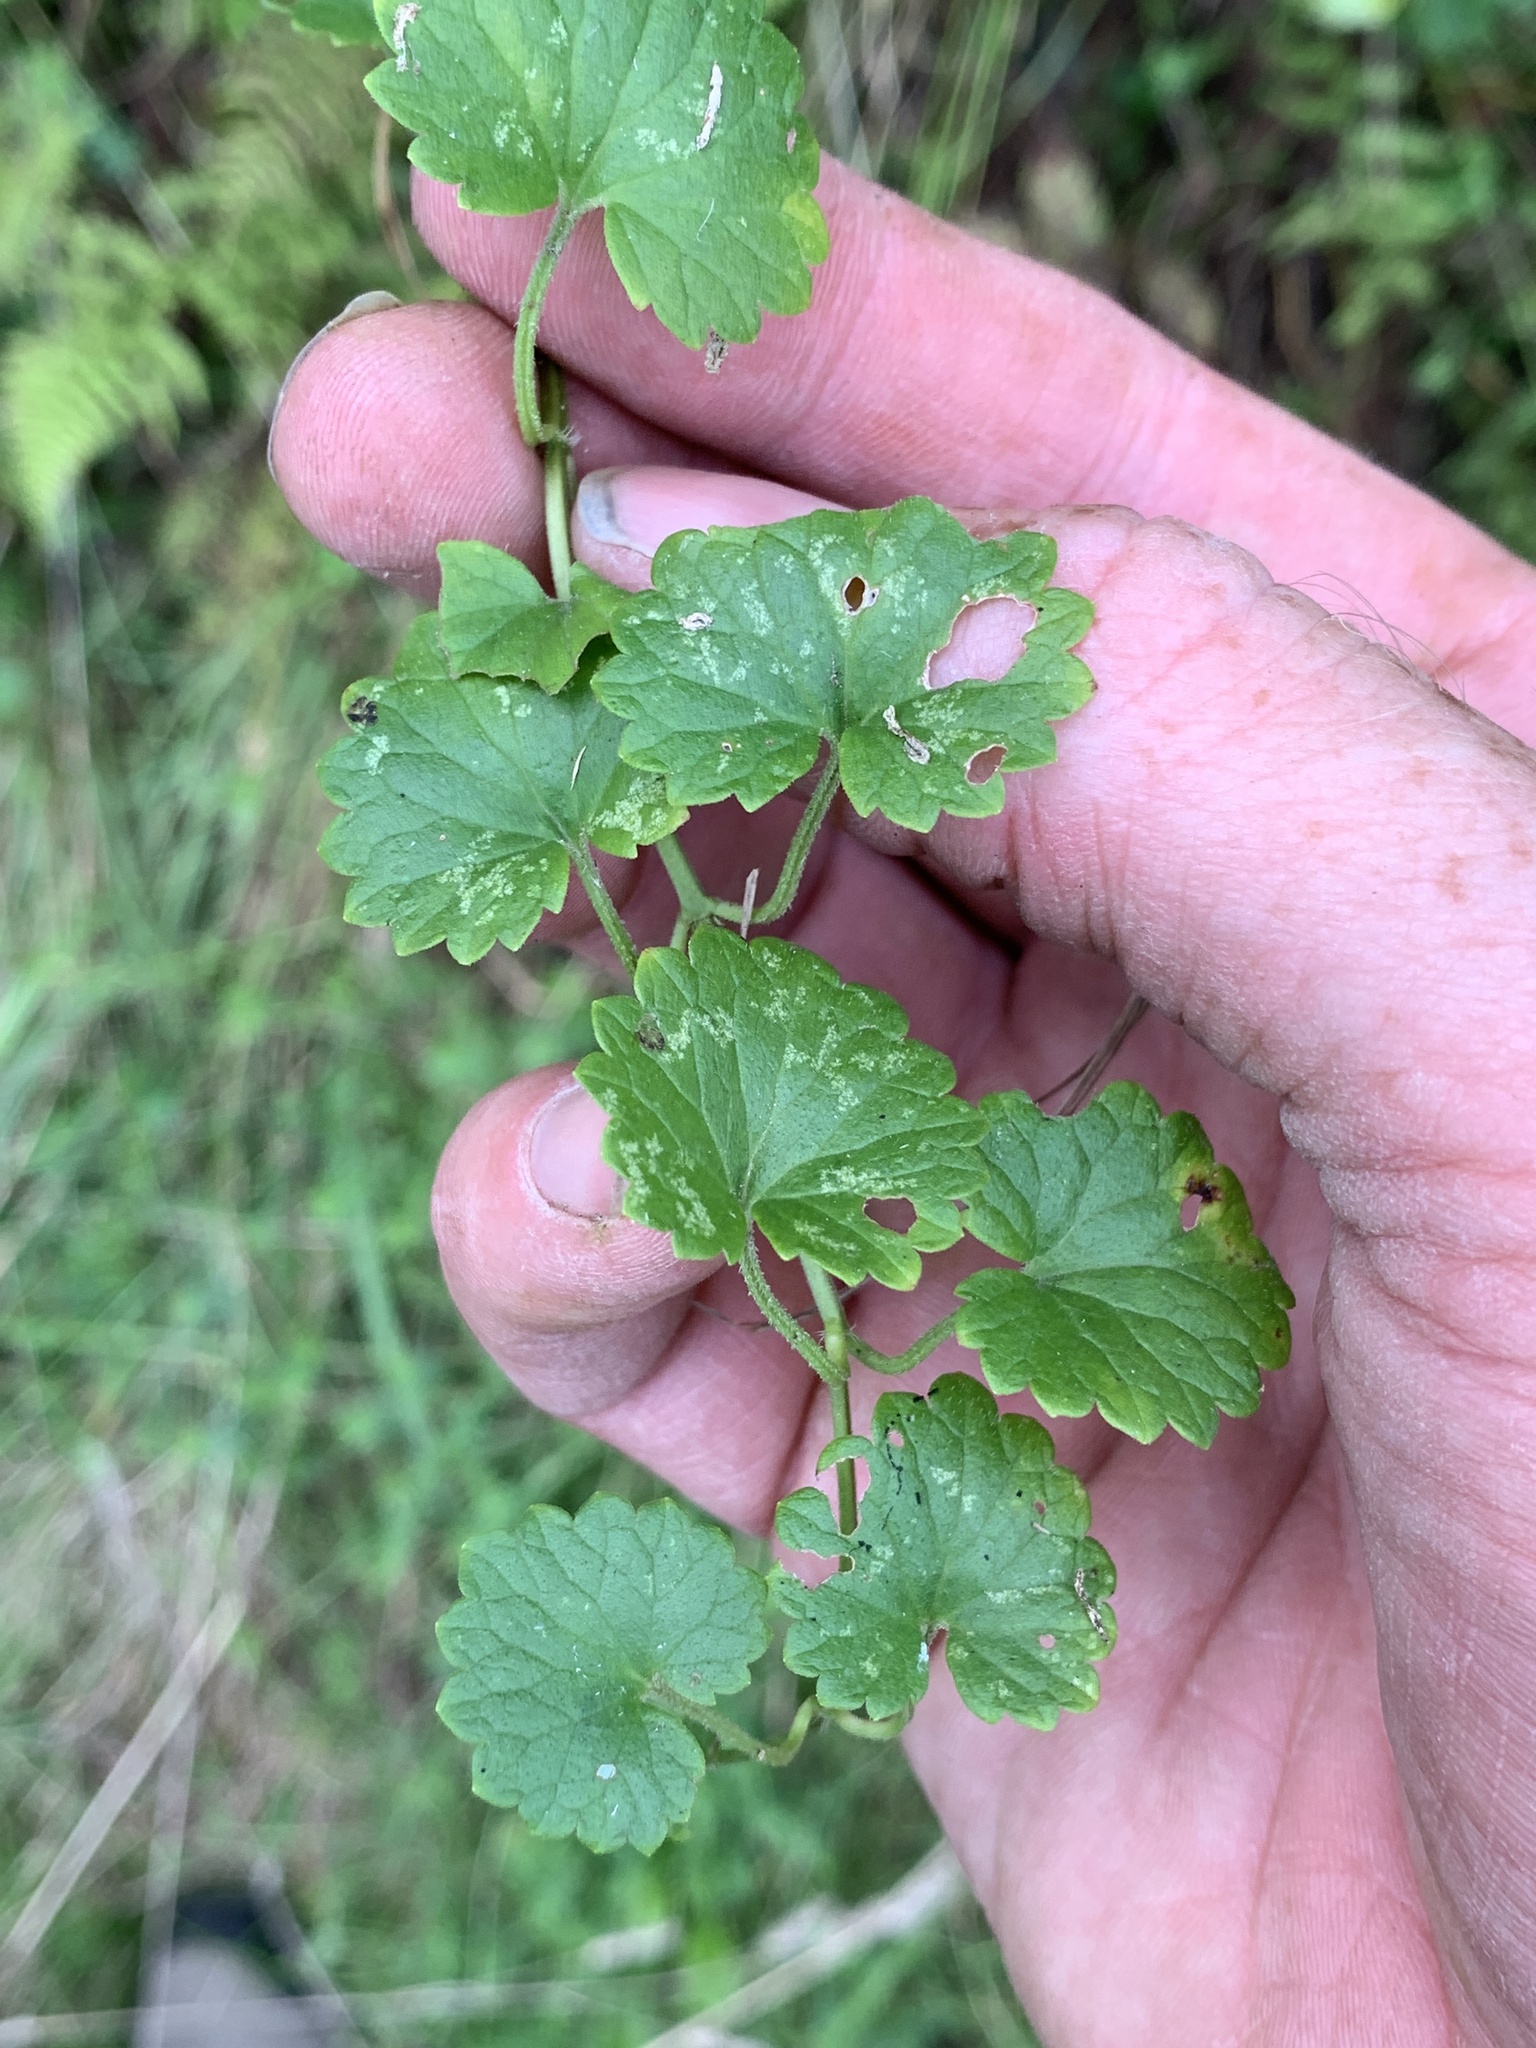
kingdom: Plantae
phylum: Tracheophyta
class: Magnoliopsida
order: Lamiales
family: Lamiaceae
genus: Glechoma
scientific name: Glechoma hederacea
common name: Ground ivy
